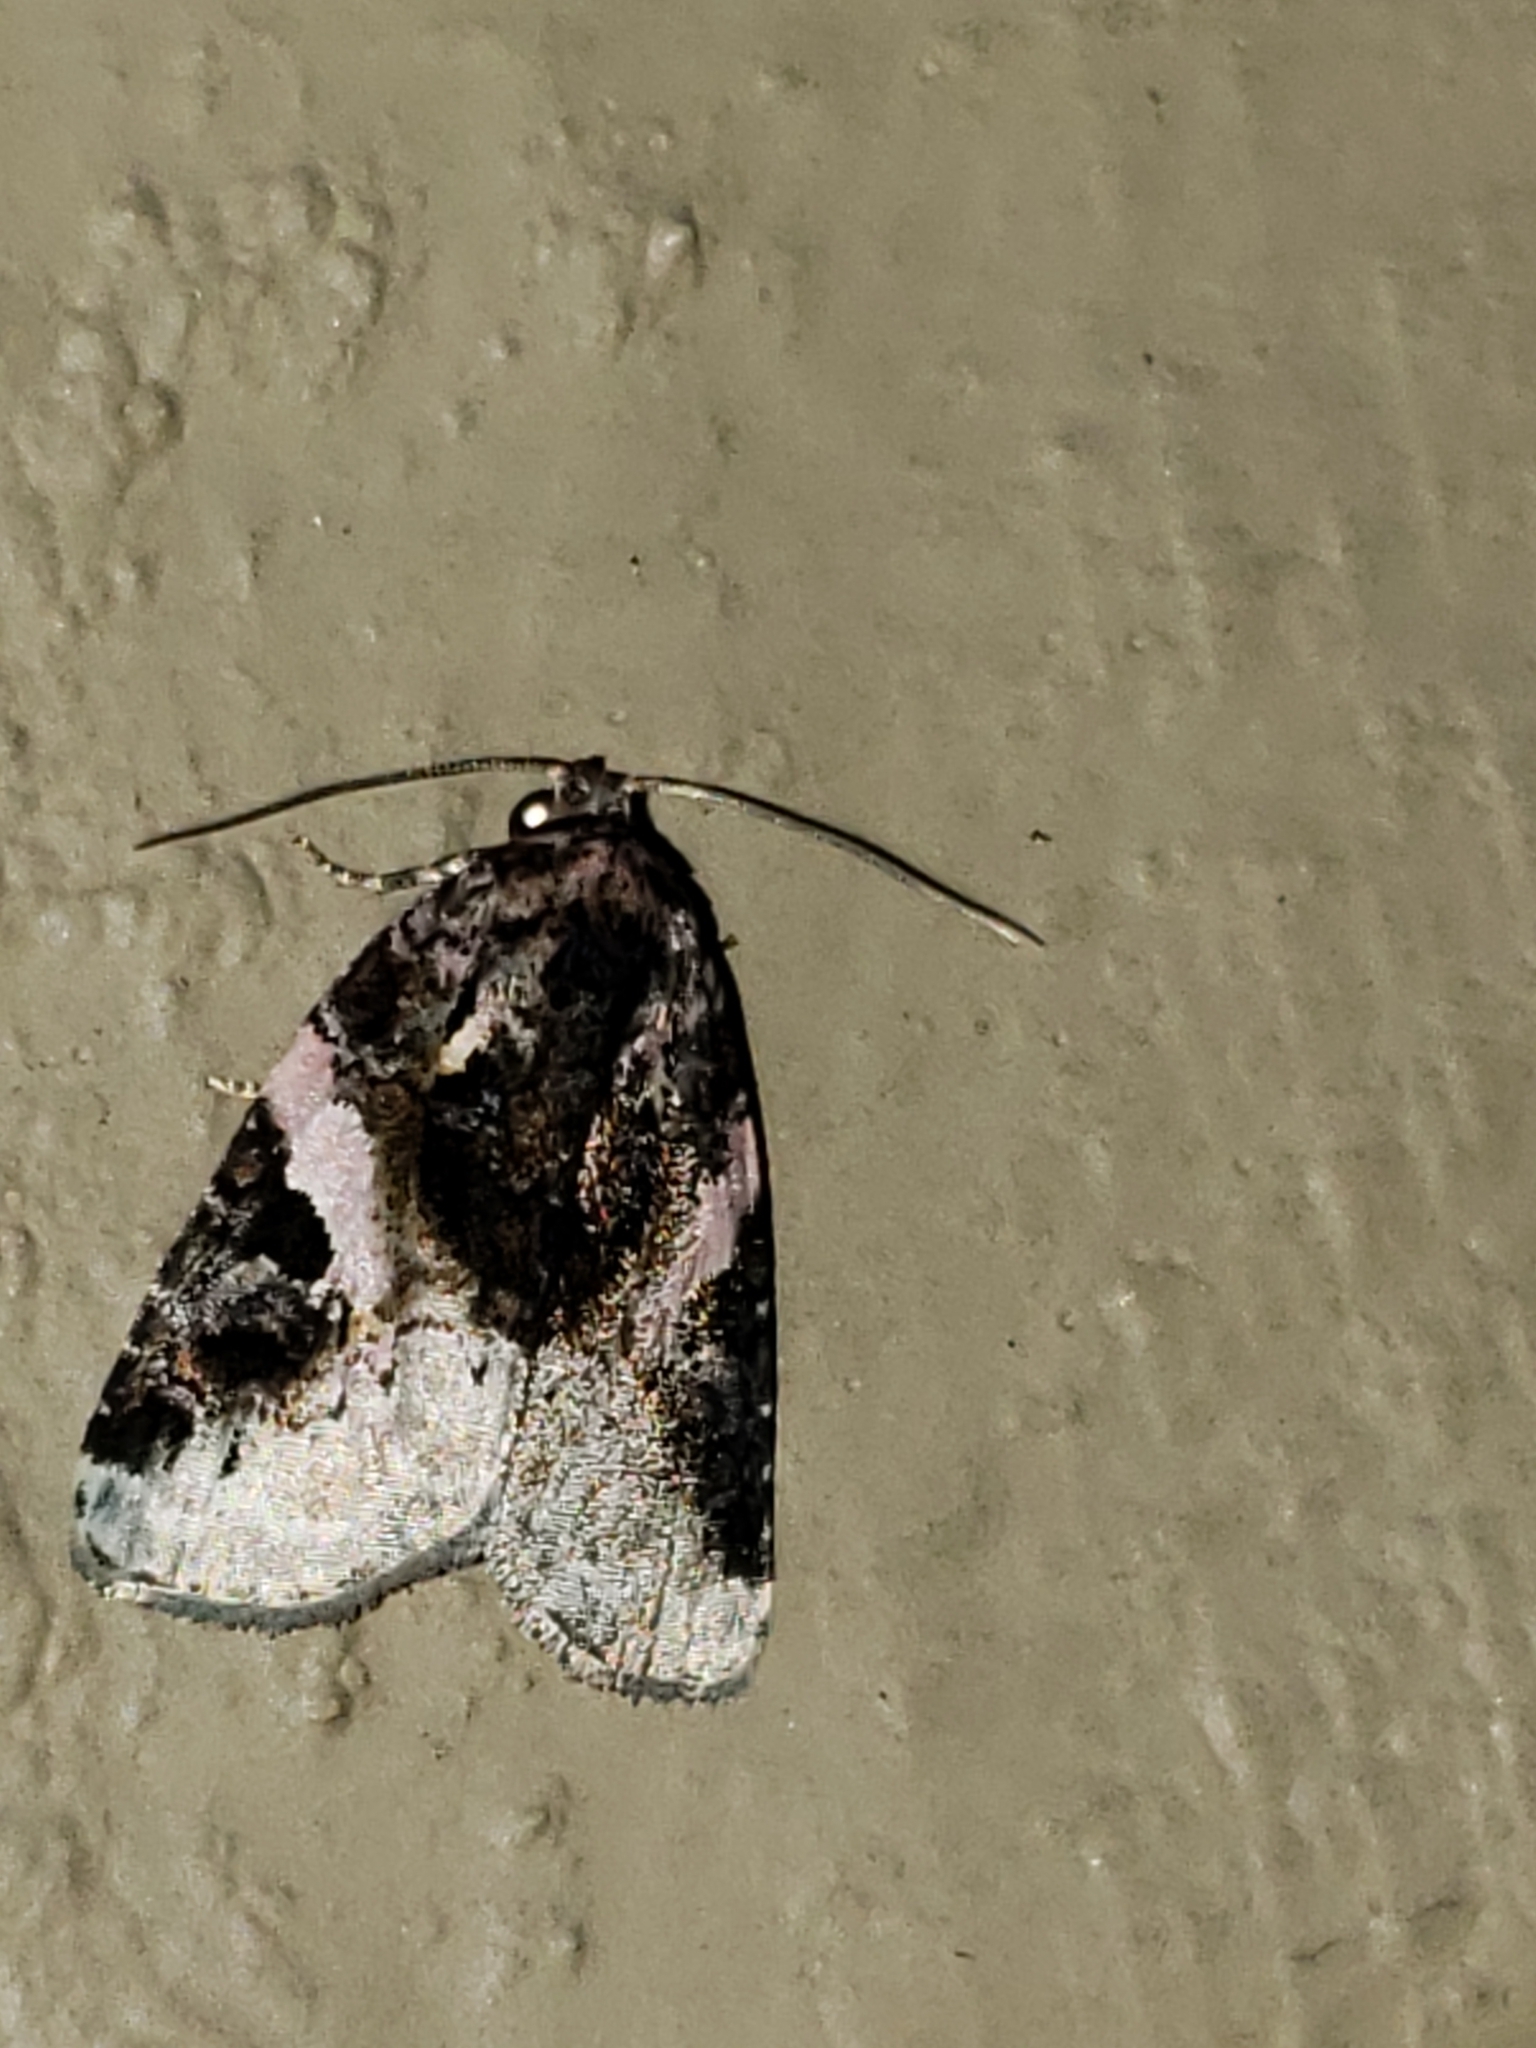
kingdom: Animalia
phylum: Arthropoda
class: Insecta
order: Lepidoptera
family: Noctuidae
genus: Pseudeustrotia
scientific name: Pseudeustrotia carneola
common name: Pink-barred lithacodia moth
